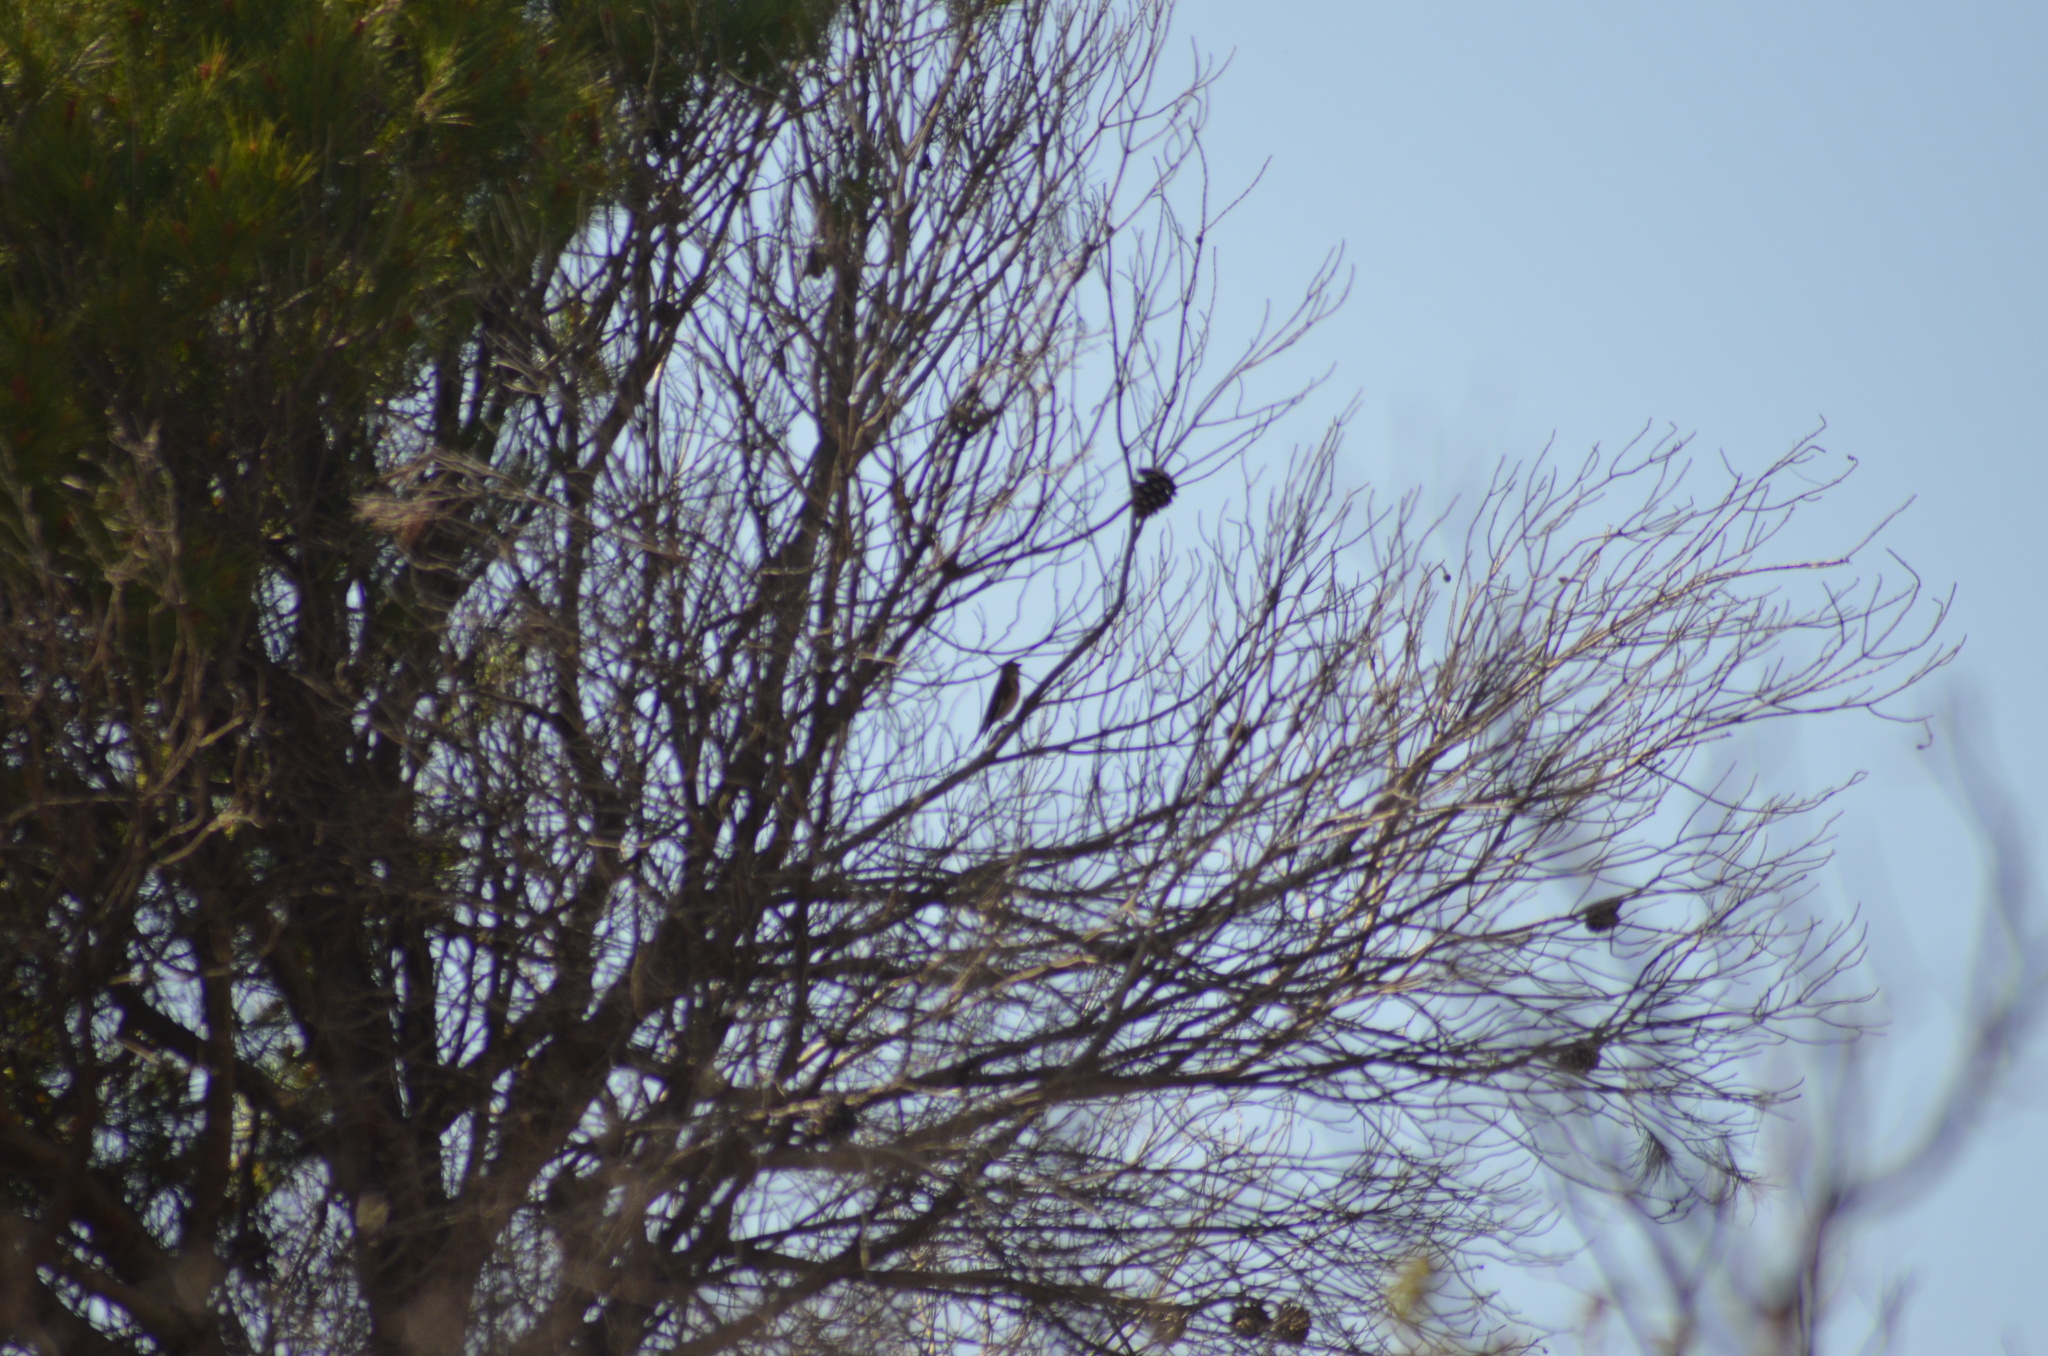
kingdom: Animalia
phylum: Chordata
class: Aves
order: Passeriformes
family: Fringillidae
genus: Linaria
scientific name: Linaria cannabina
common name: Common linnet
